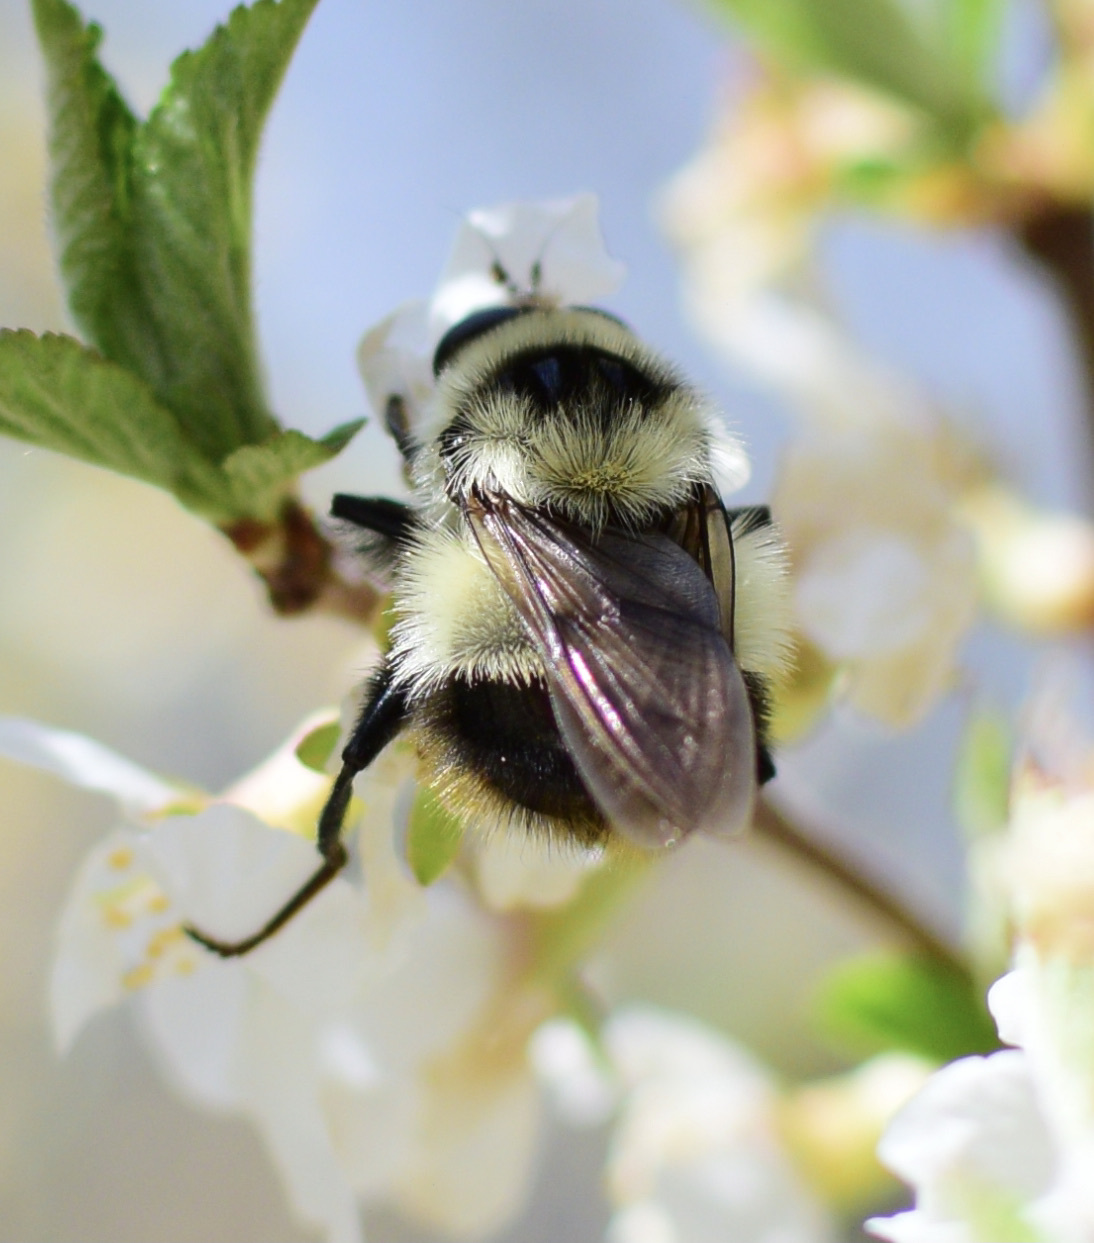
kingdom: Animalia
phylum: Arthropoda
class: Insecta
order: Diptera
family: Syrphidae
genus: Criorhina
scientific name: Criorhina nigriventris
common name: Bare-cheeked bumble fly
